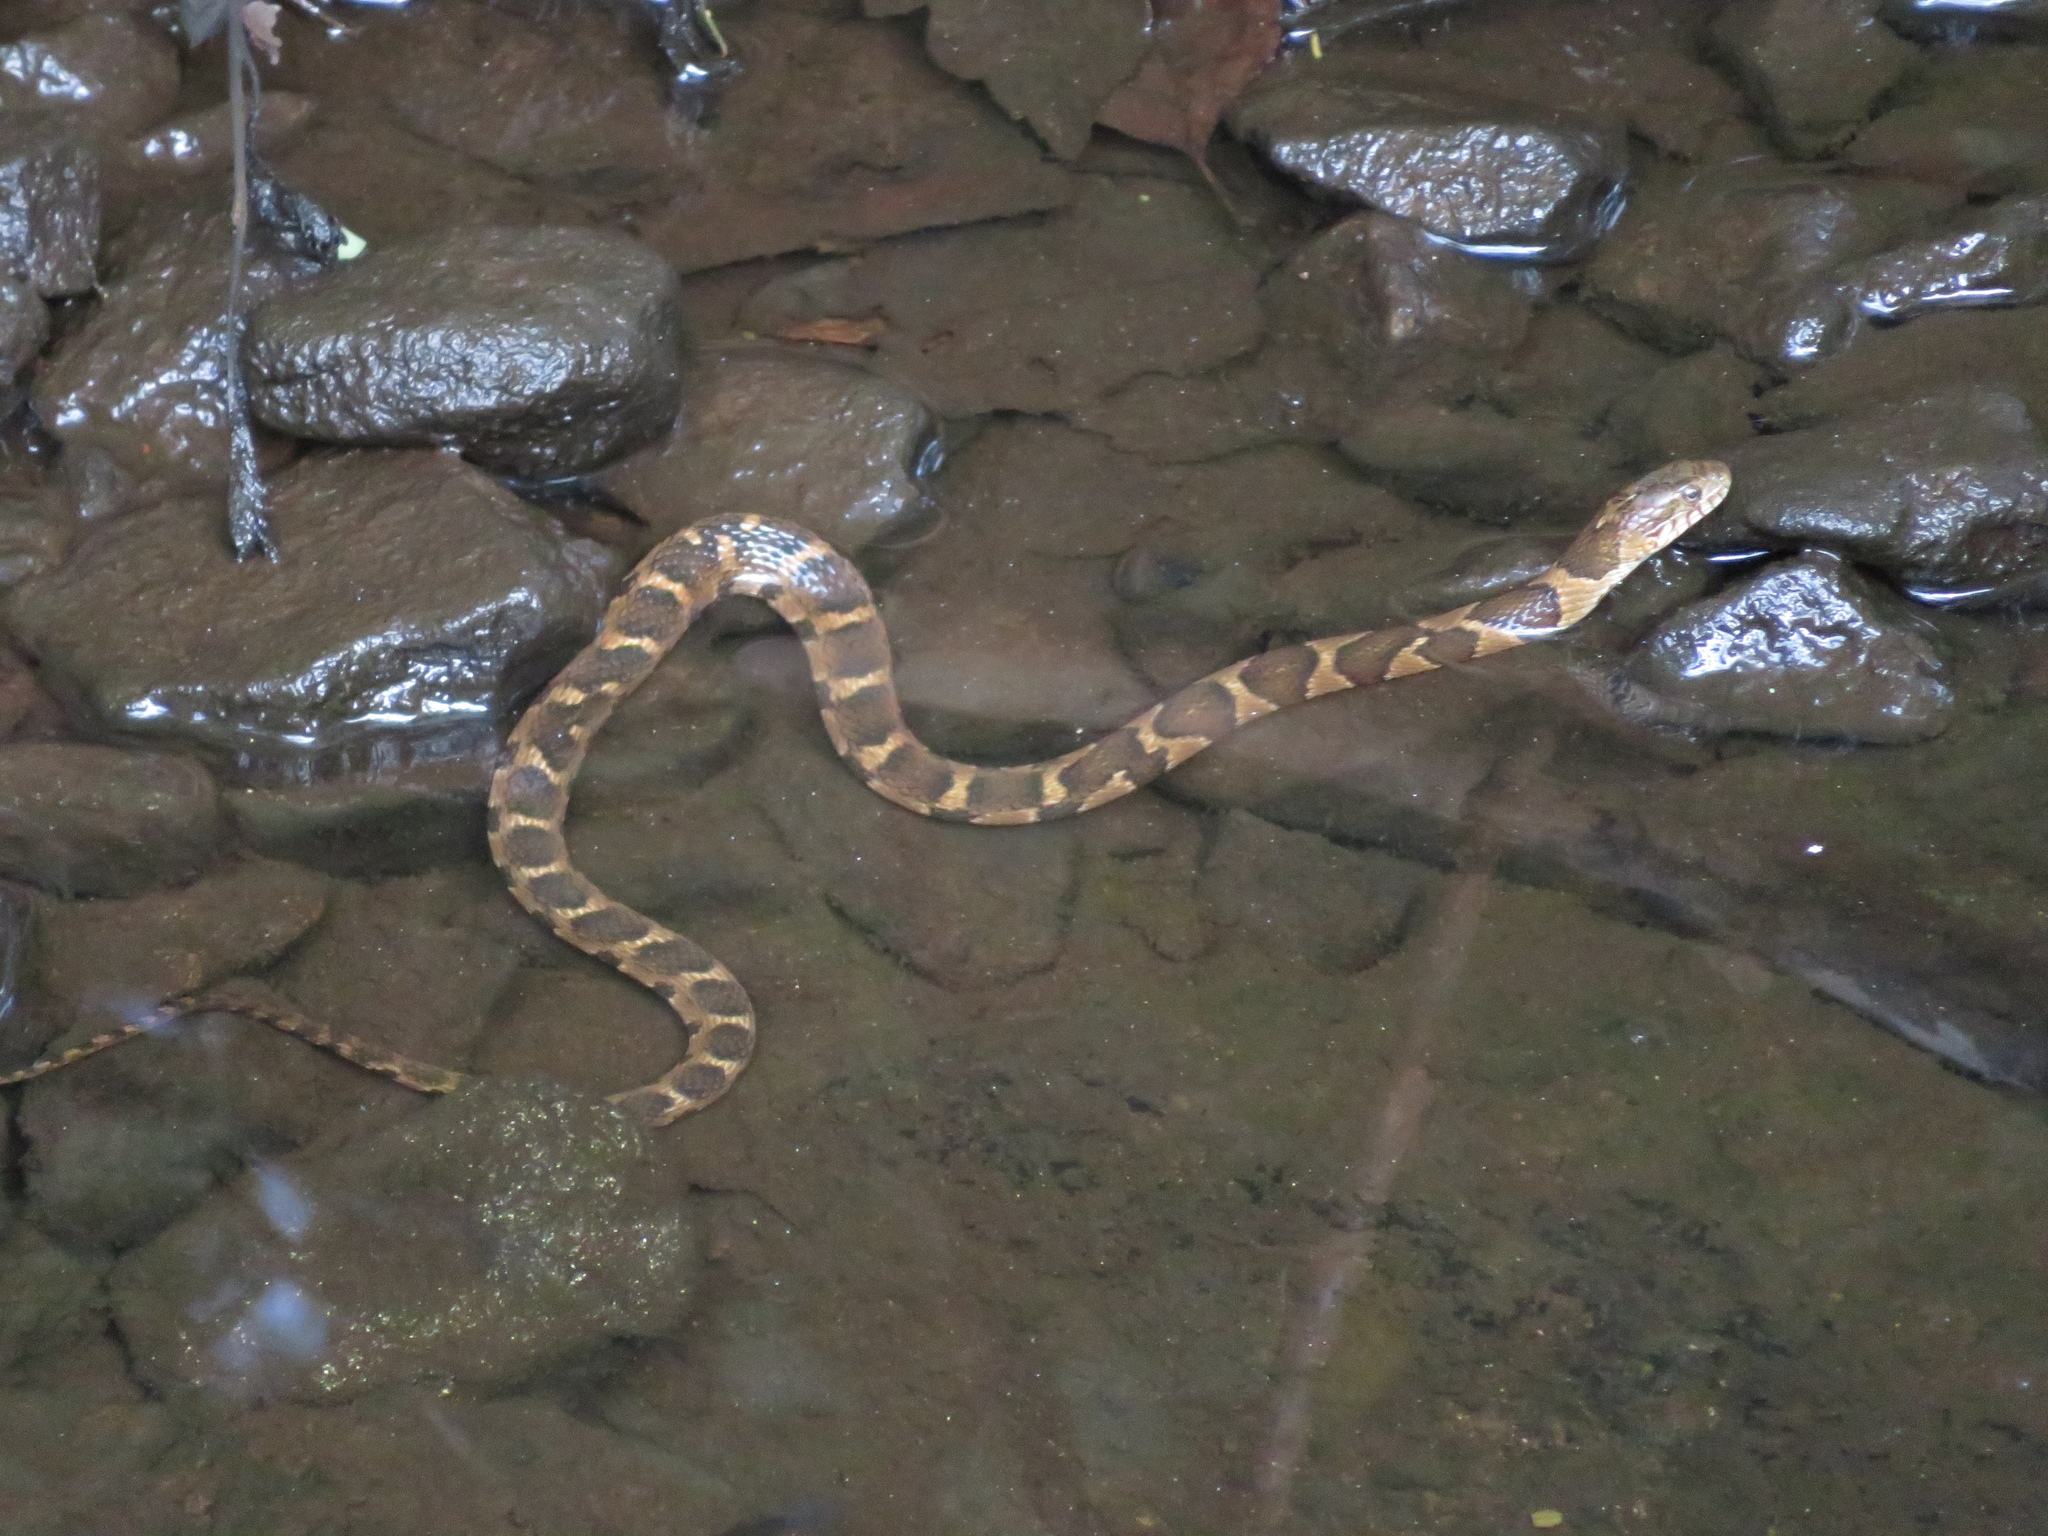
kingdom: Animalia
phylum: Chordata
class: Squamata
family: Colubridae
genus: Nerodia
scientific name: Nerodia sipedon
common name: Northern water snake
